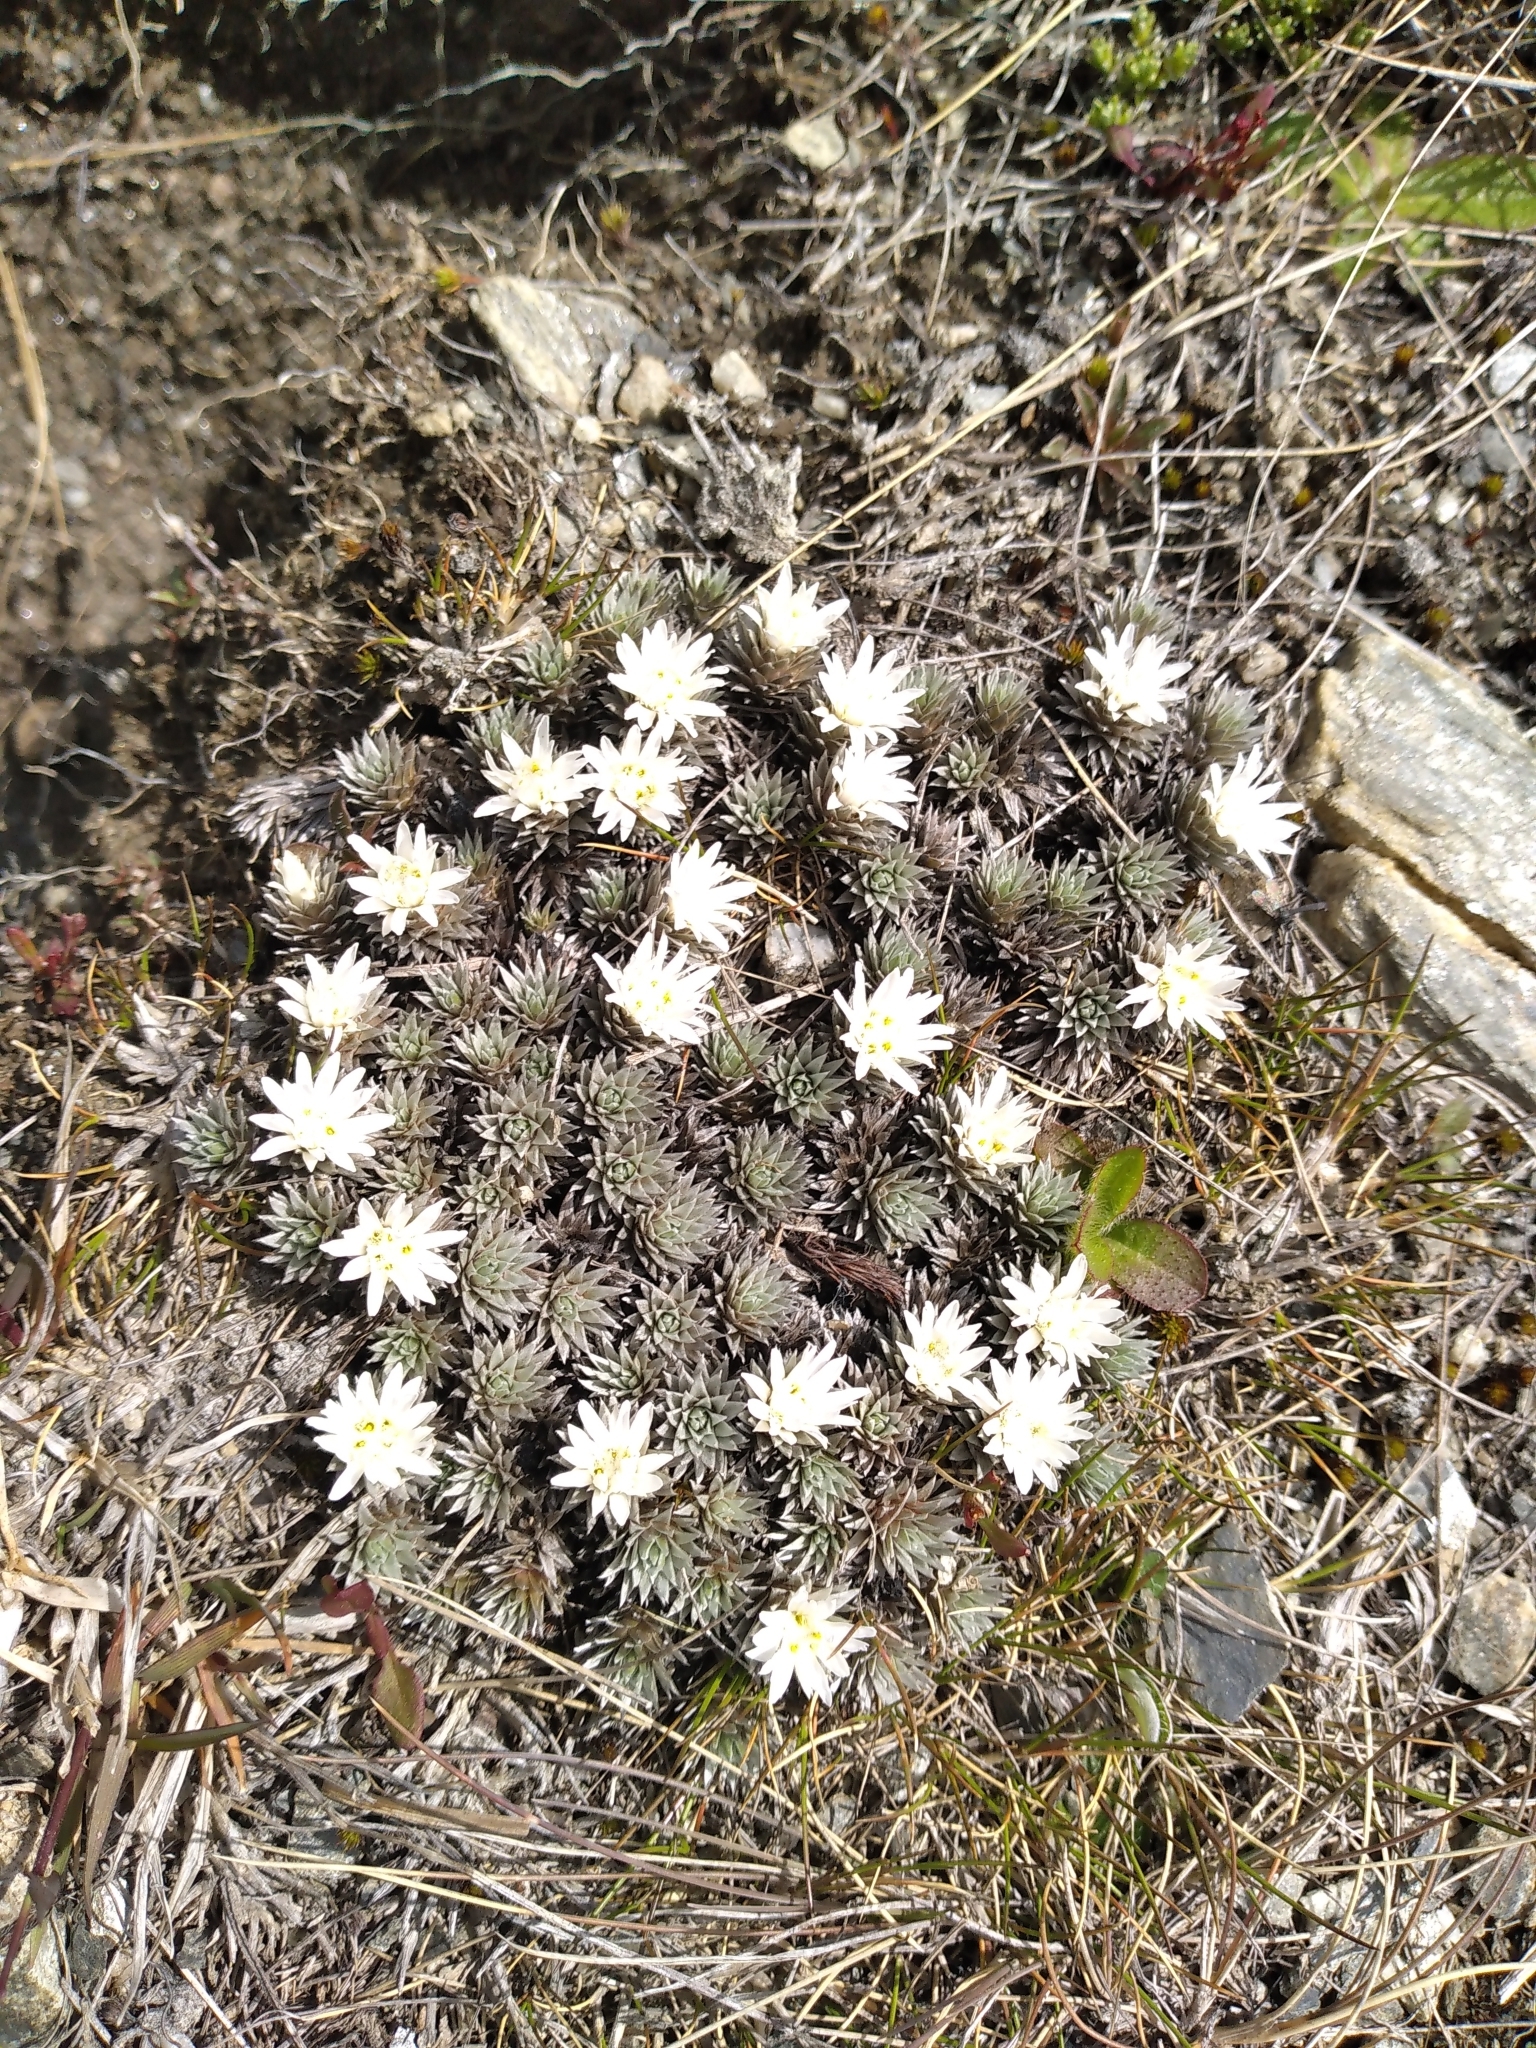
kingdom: Plantae
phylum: Tracheophyta
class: Magnoliopsida
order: Asterales
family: Asteraceae
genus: Raoulia
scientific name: Raoulia grandiflora
